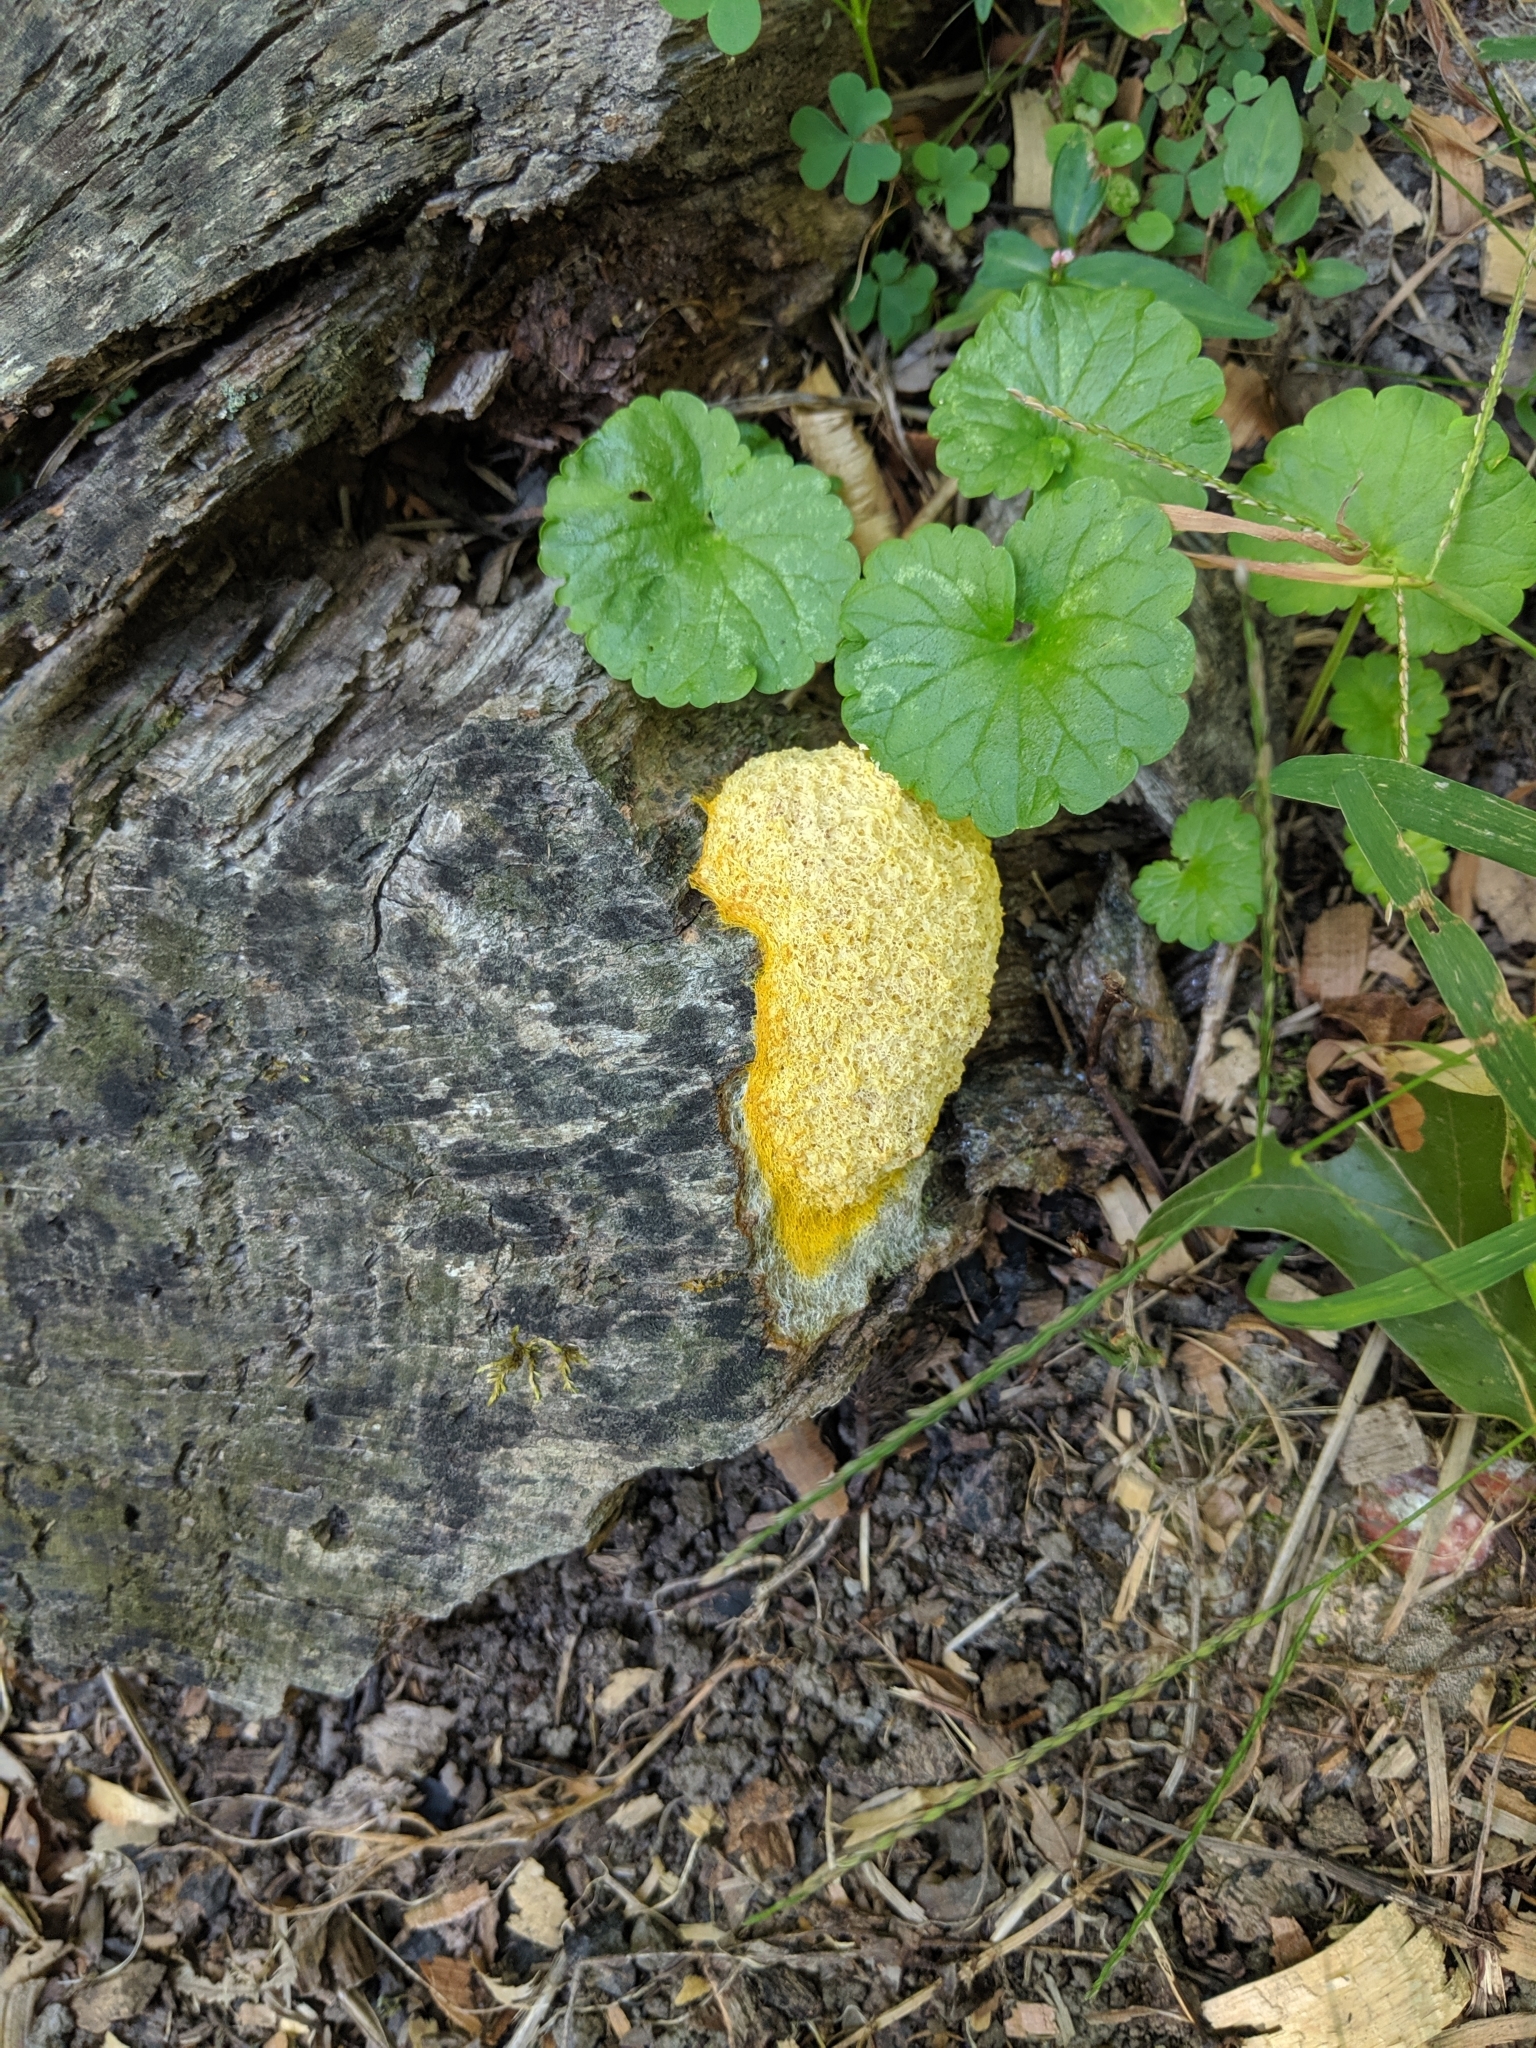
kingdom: Protozoa
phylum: Mycetozoa
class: Myxomycetes
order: Physarales
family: Physaraceae
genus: Fuligo
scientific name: Fuligo septica
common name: Dog vomit slime mold
